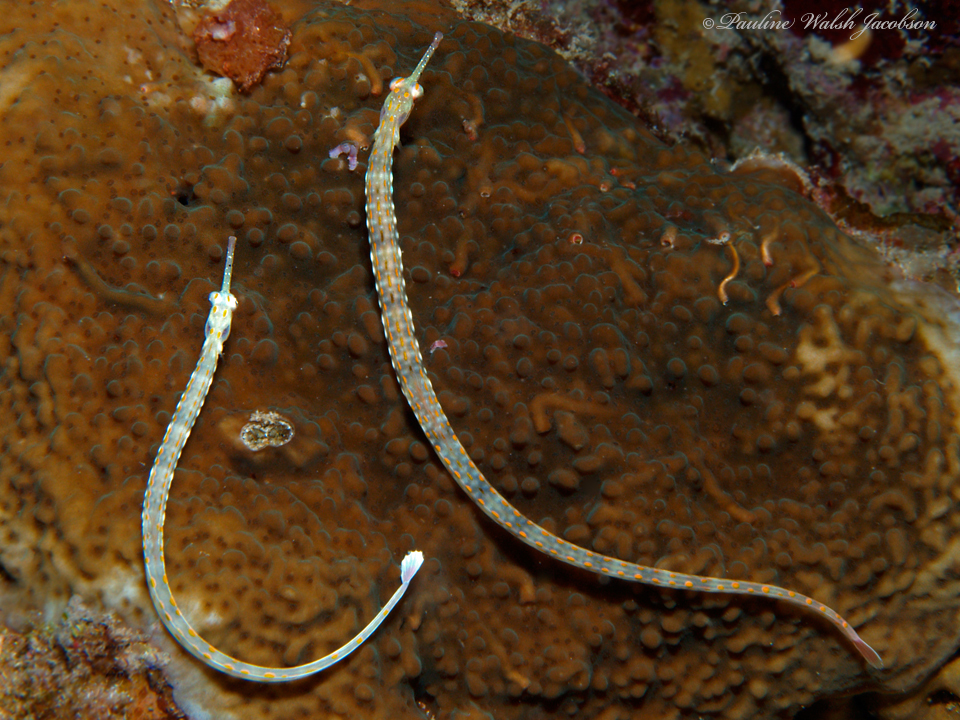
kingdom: Animalia
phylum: Chordata
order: Syngnathiformes
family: Syngnathidae
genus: Corythoichthys
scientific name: Corythoichthys schultzi
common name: Guilded pipefish
